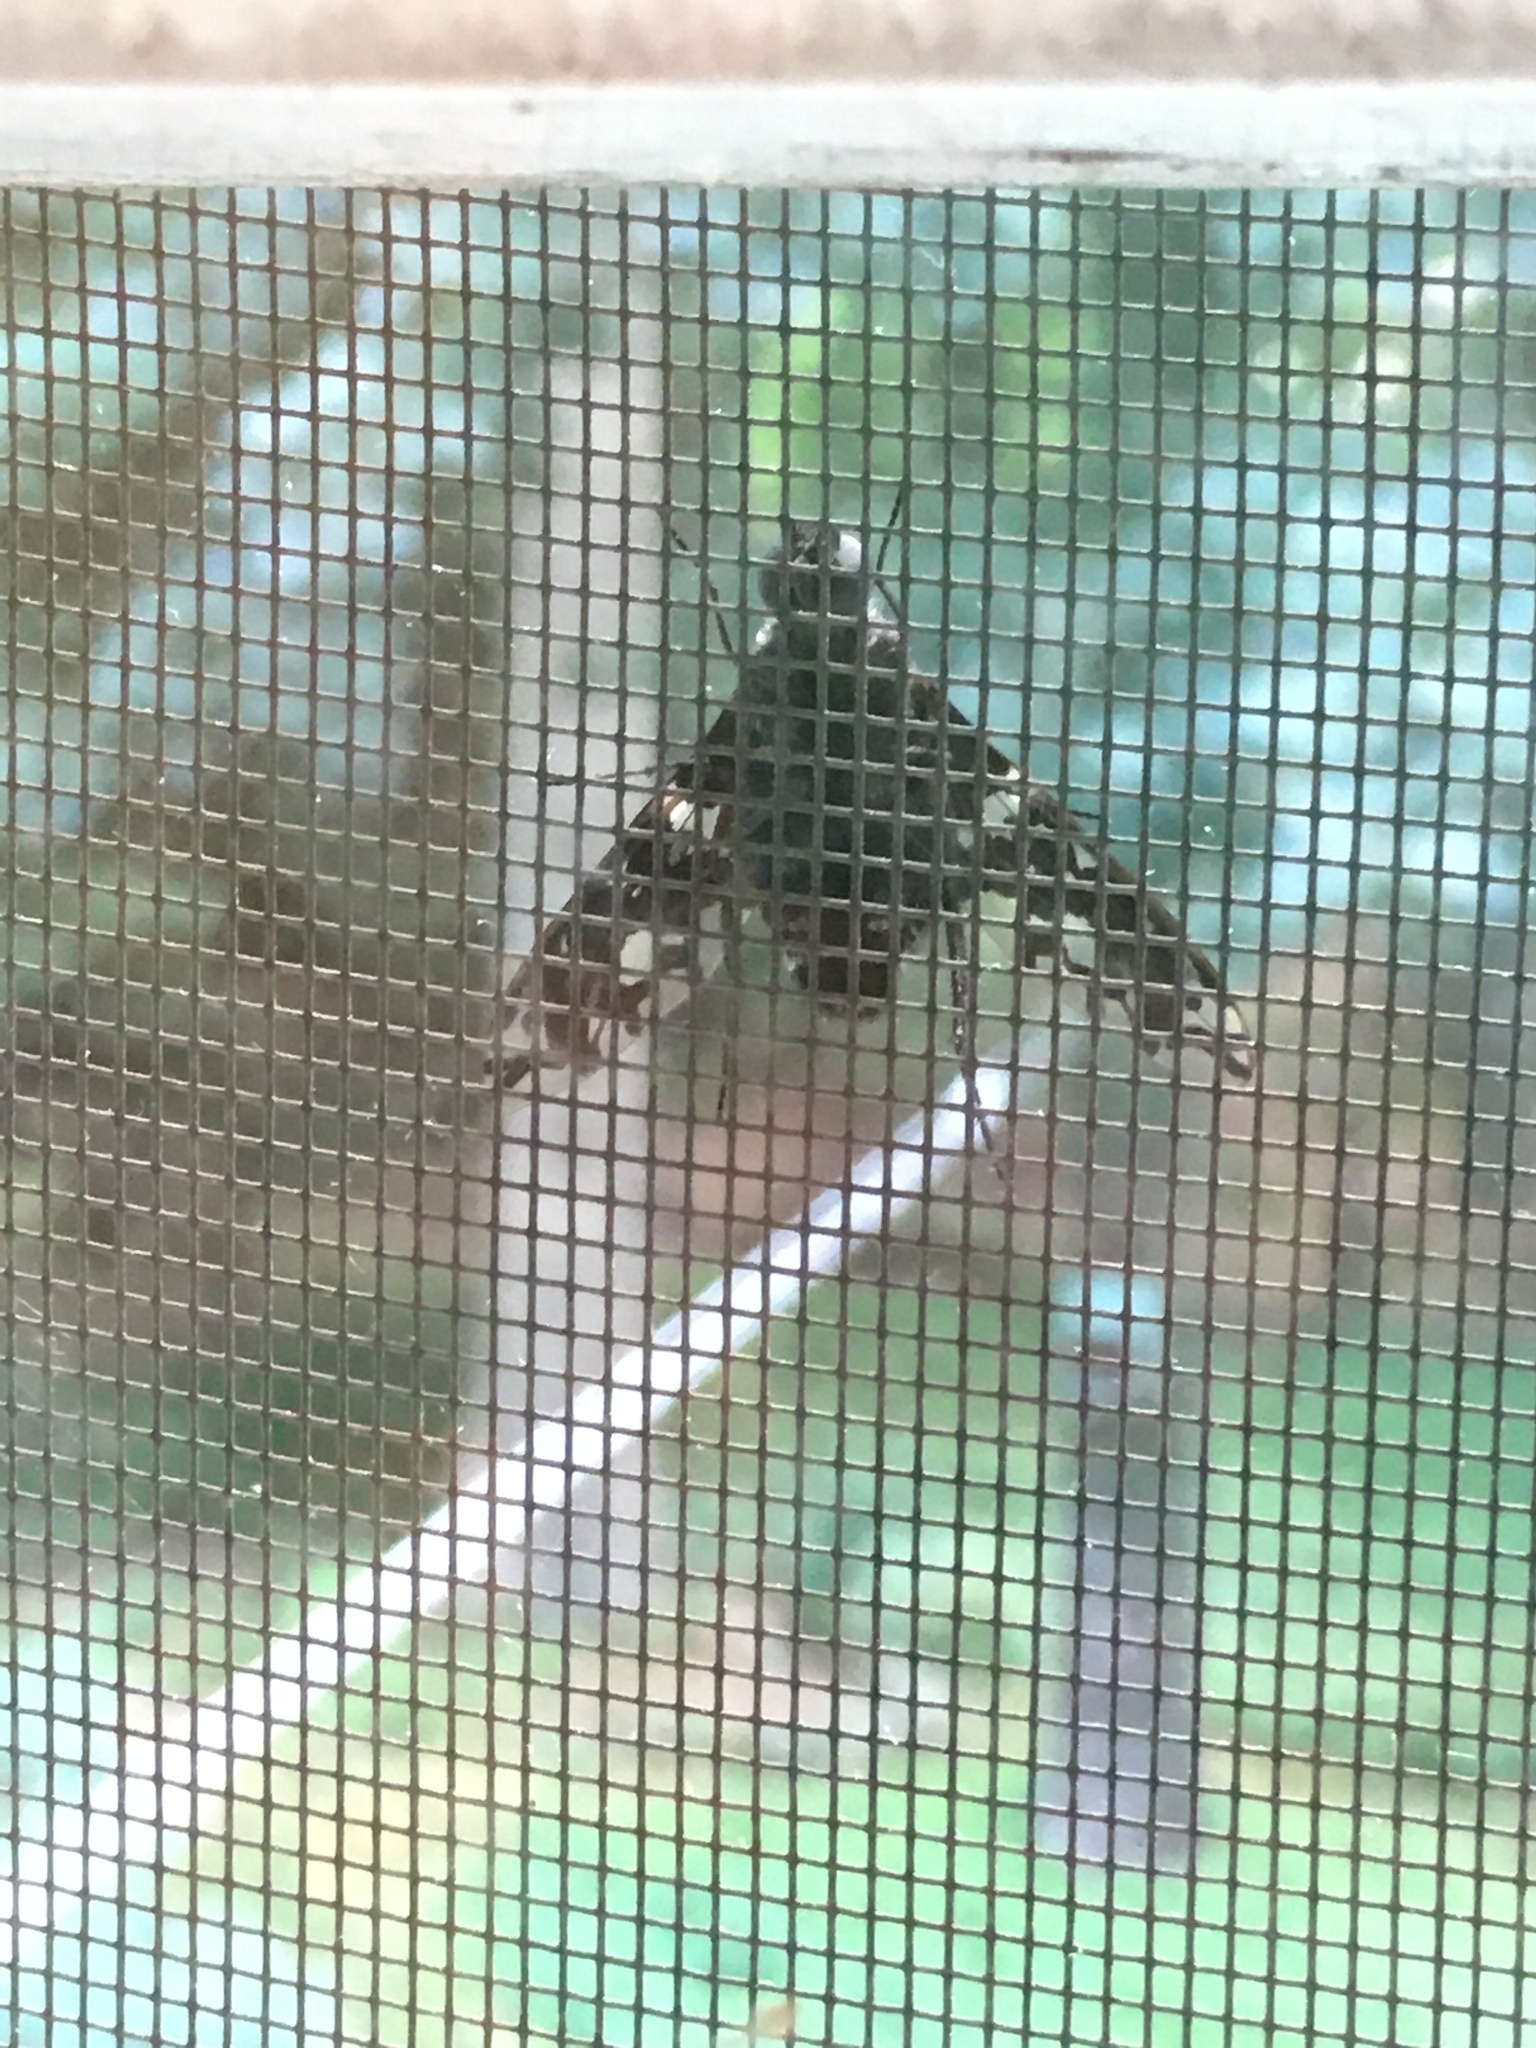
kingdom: Animalia
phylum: Arthropoda
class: Insecta
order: Diptera
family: Bombyliidae
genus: Xenox
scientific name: Xenox tigrinus
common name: Tiger bee fly
